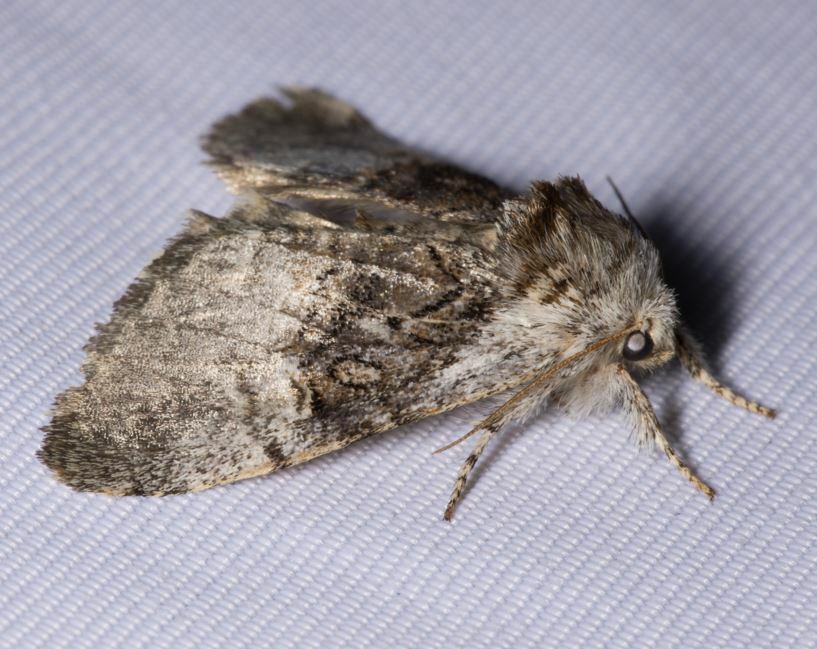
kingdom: Animalia
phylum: Arthropoda
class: Insecta
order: Lepidoptera
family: Noctuidae
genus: Colocasia
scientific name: Colocasia coryli
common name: Nut-tree tussock
